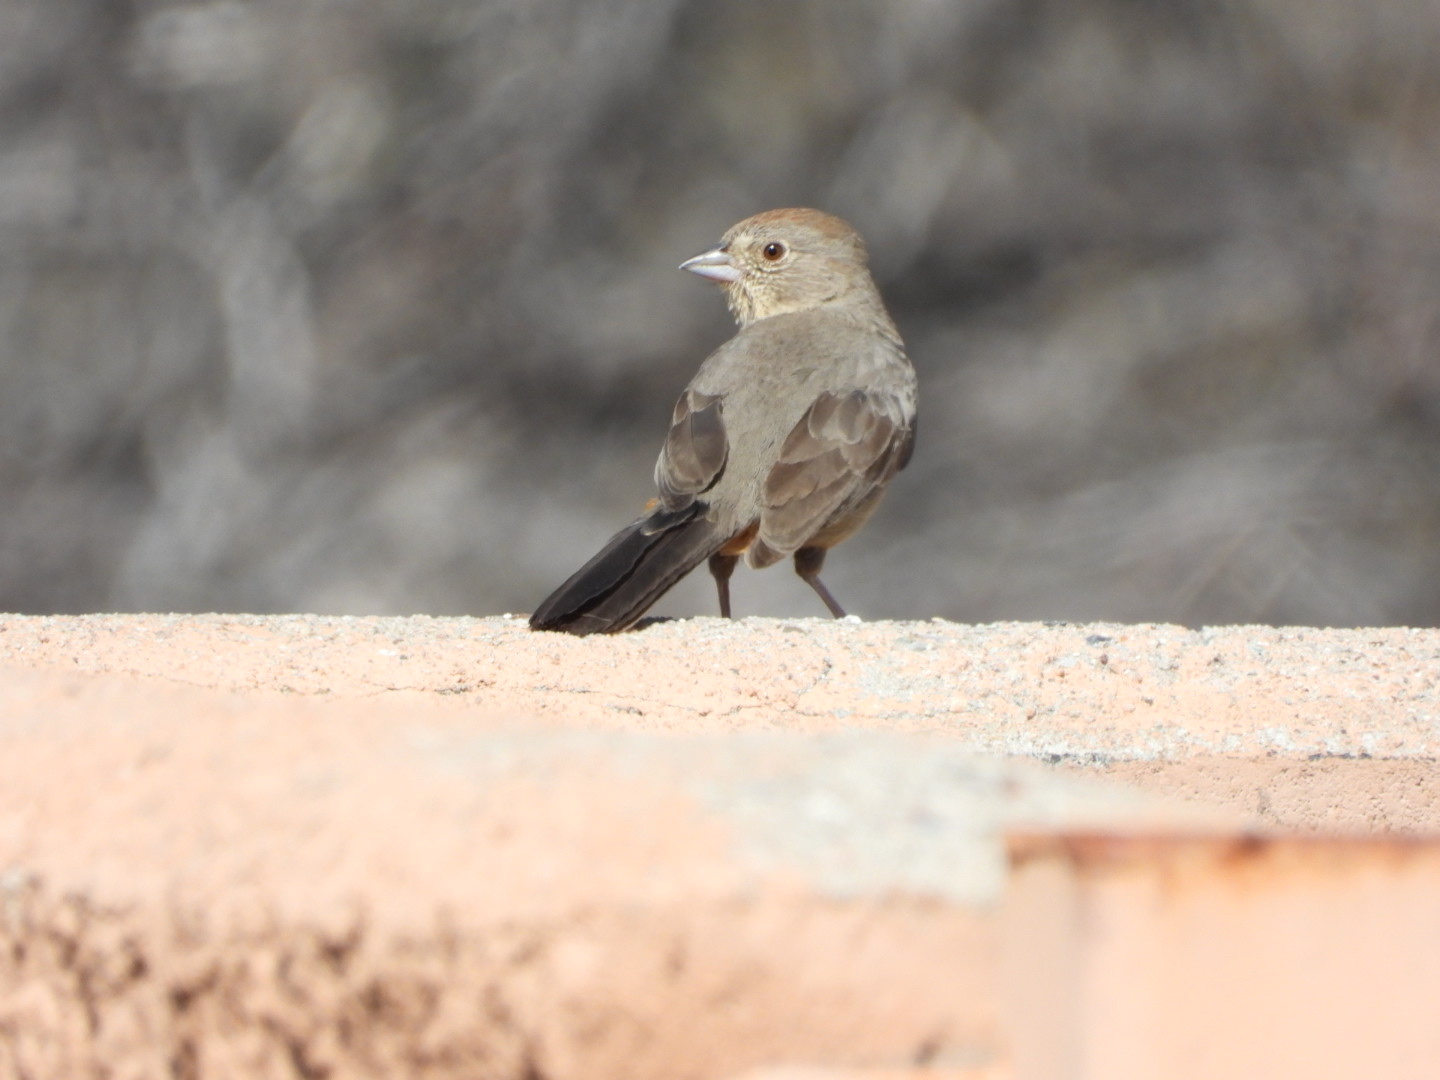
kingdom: Animalia
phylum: Chordata
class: Aves
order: Passeriformes
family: Passerellidae
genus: Melozone
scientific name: Melozone fusca
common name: Canyon towhee
